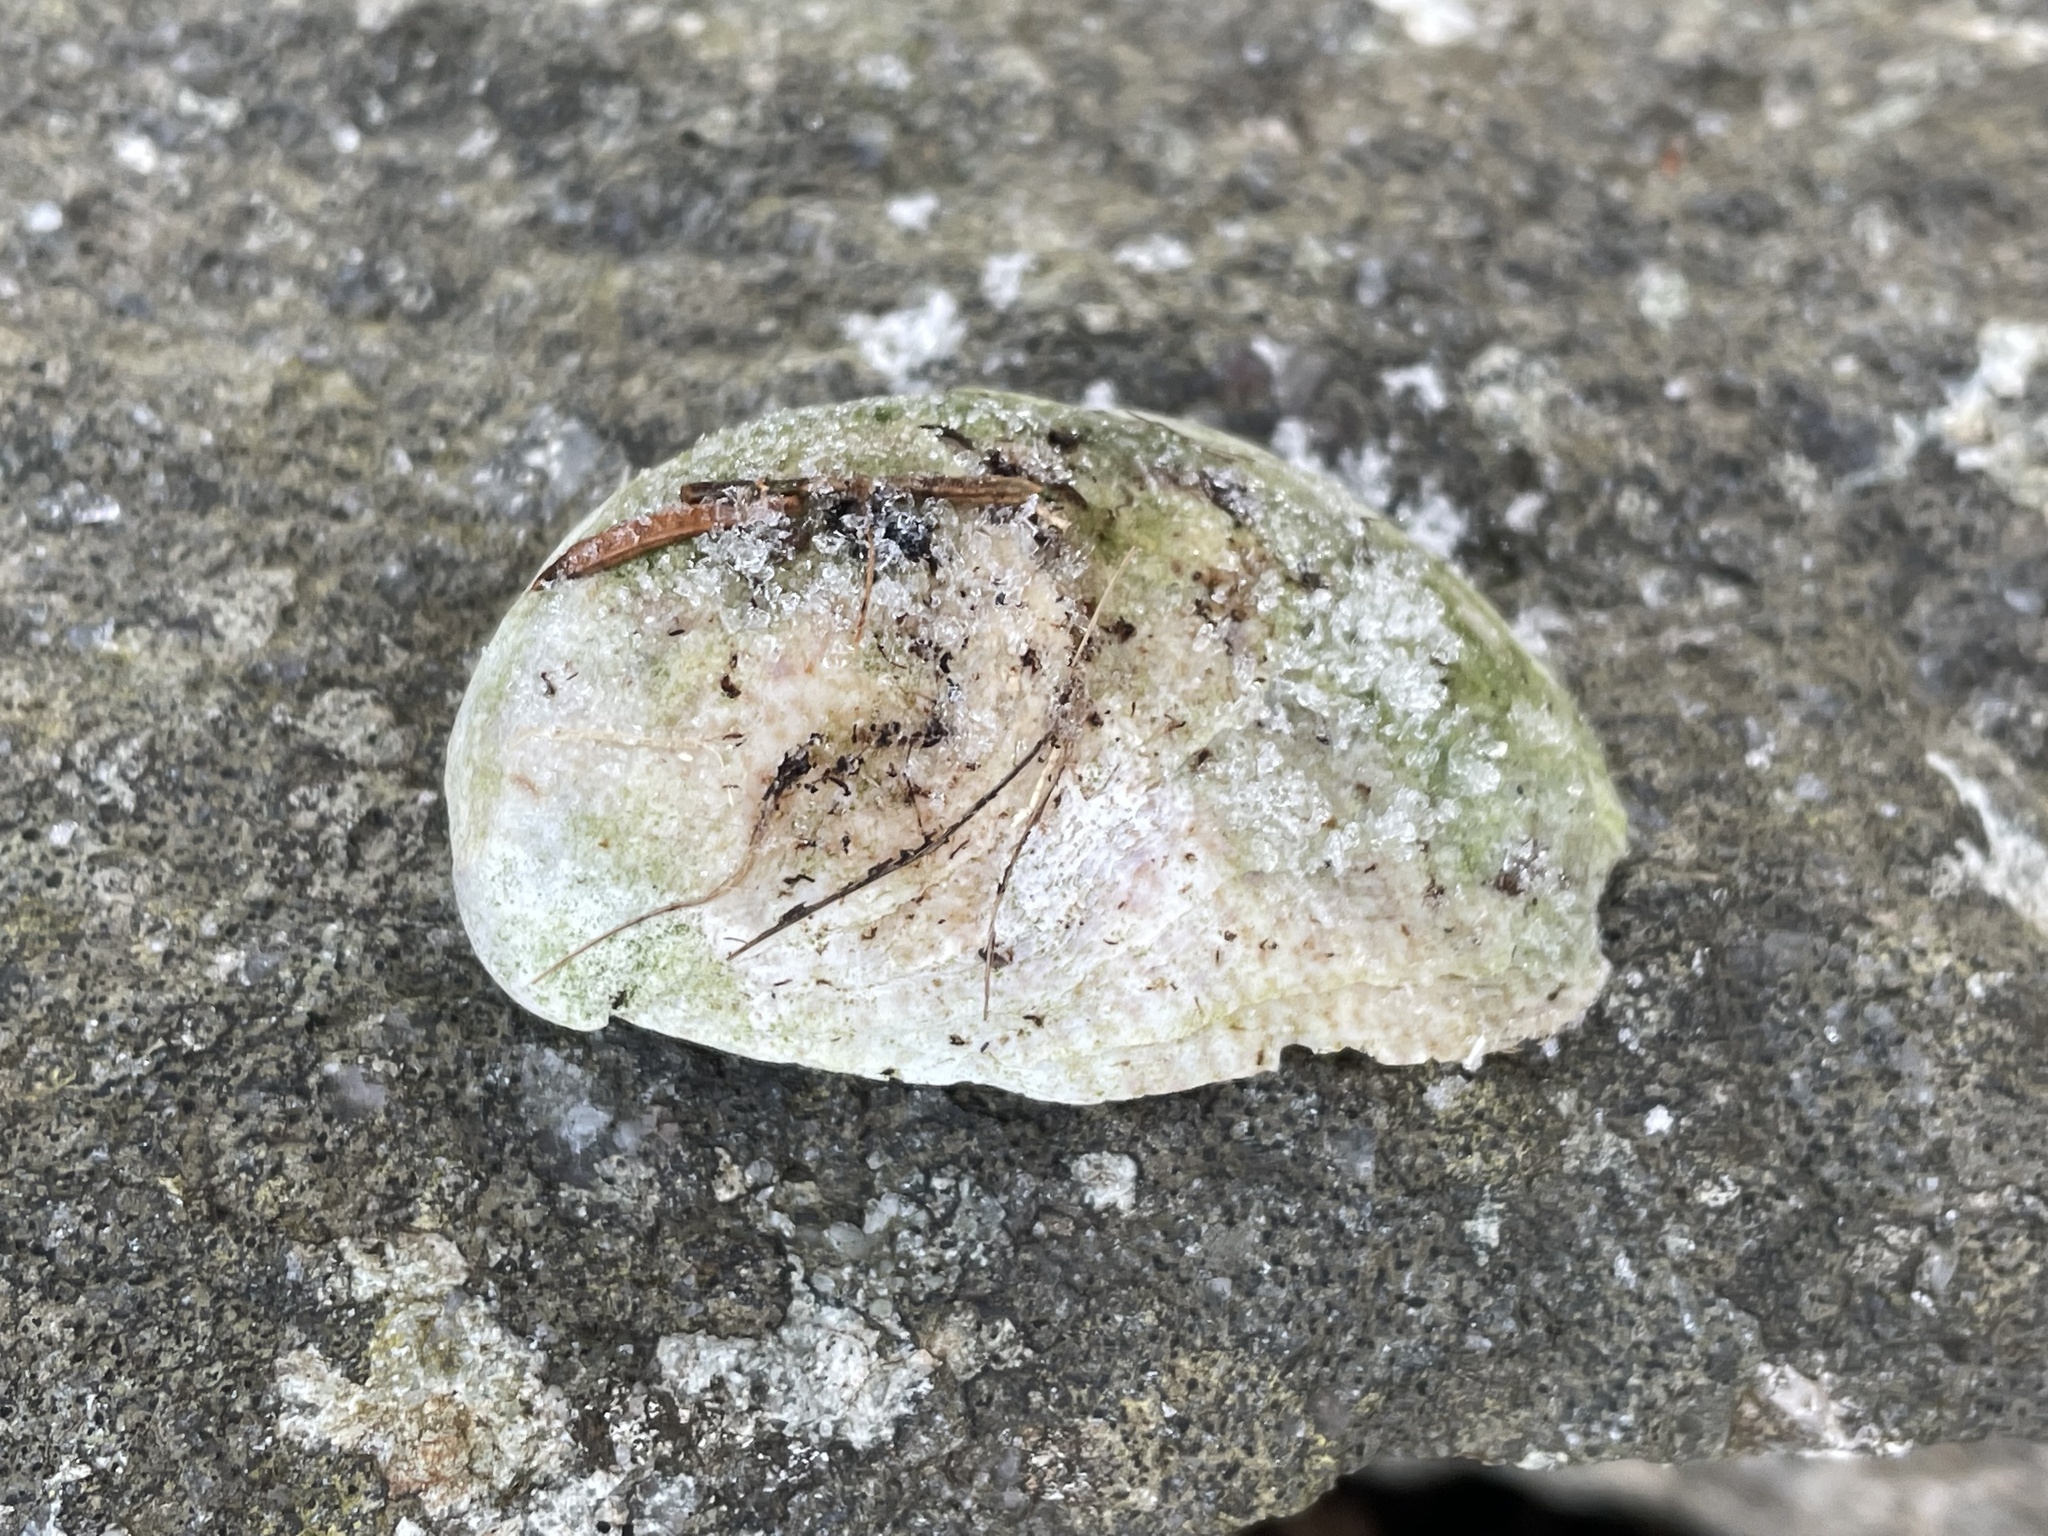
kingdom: Animalia
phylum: Mollusca
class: Gastropoda
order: Littorinimorpha
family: Calyptraeidae
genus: Crepidula
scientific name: Crepidula fornicata
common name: Slipper limpet
